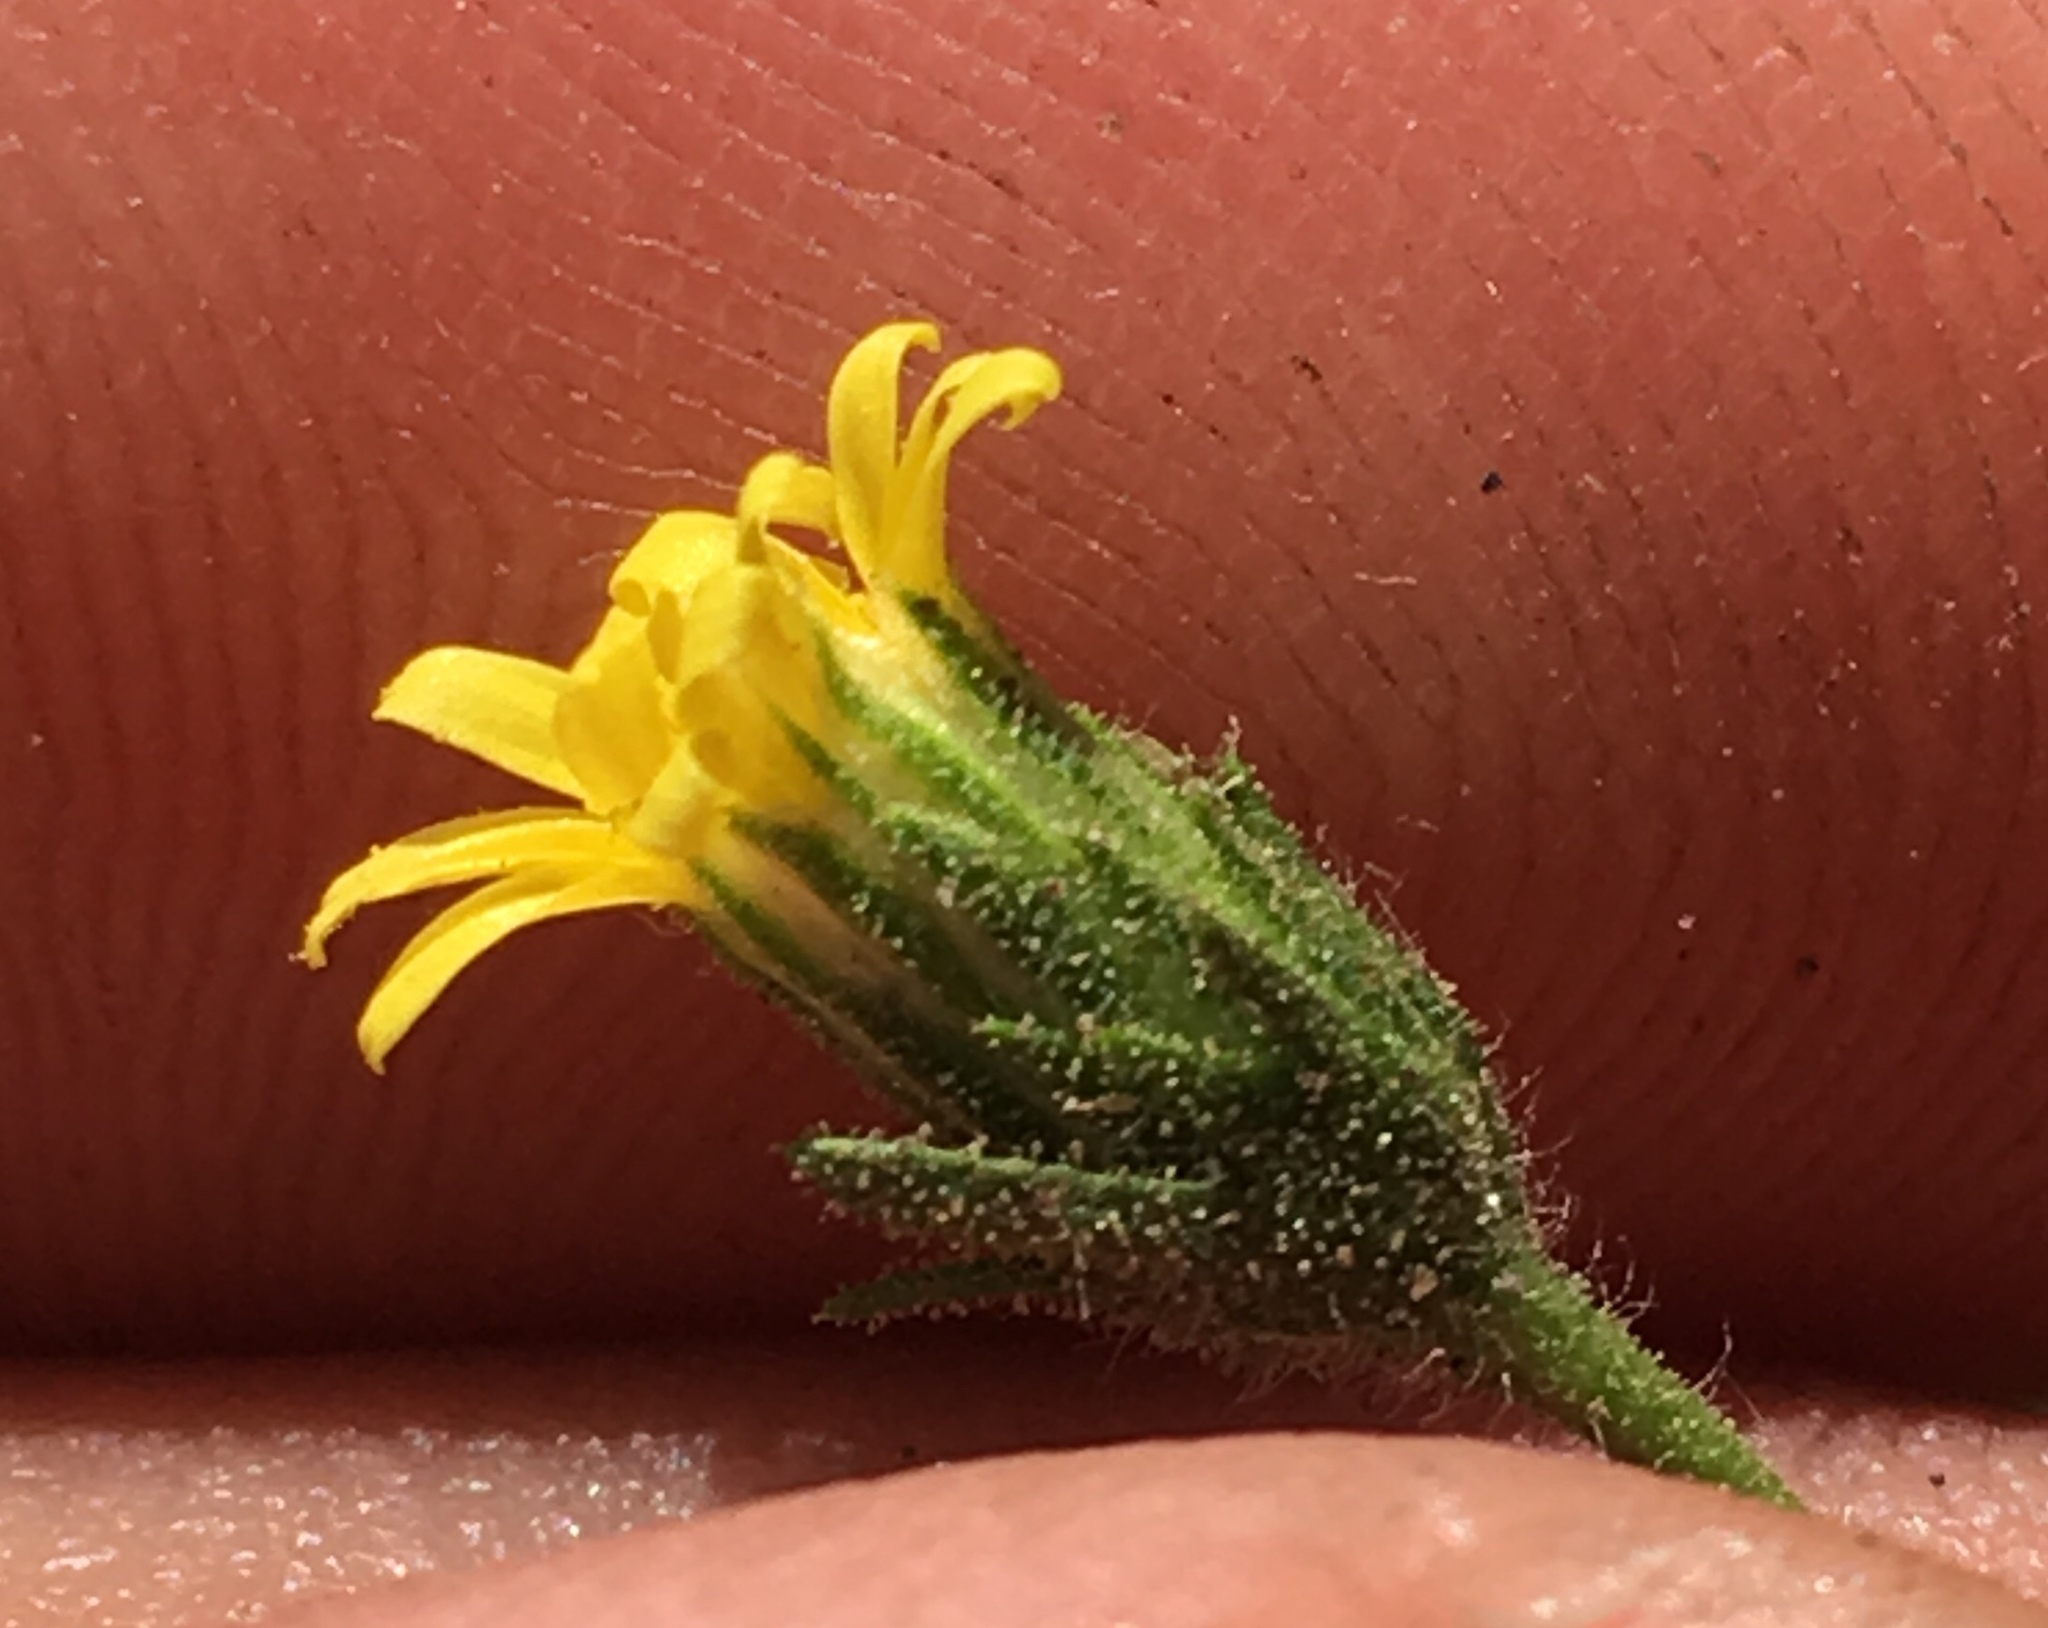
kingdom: Plantae
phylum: Tracheophyta
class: Magnoliopsida
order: Asterales
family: Asteraceae
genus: Dittrichia
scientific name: Dittrichia graveolens
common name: Stinking fleabane
